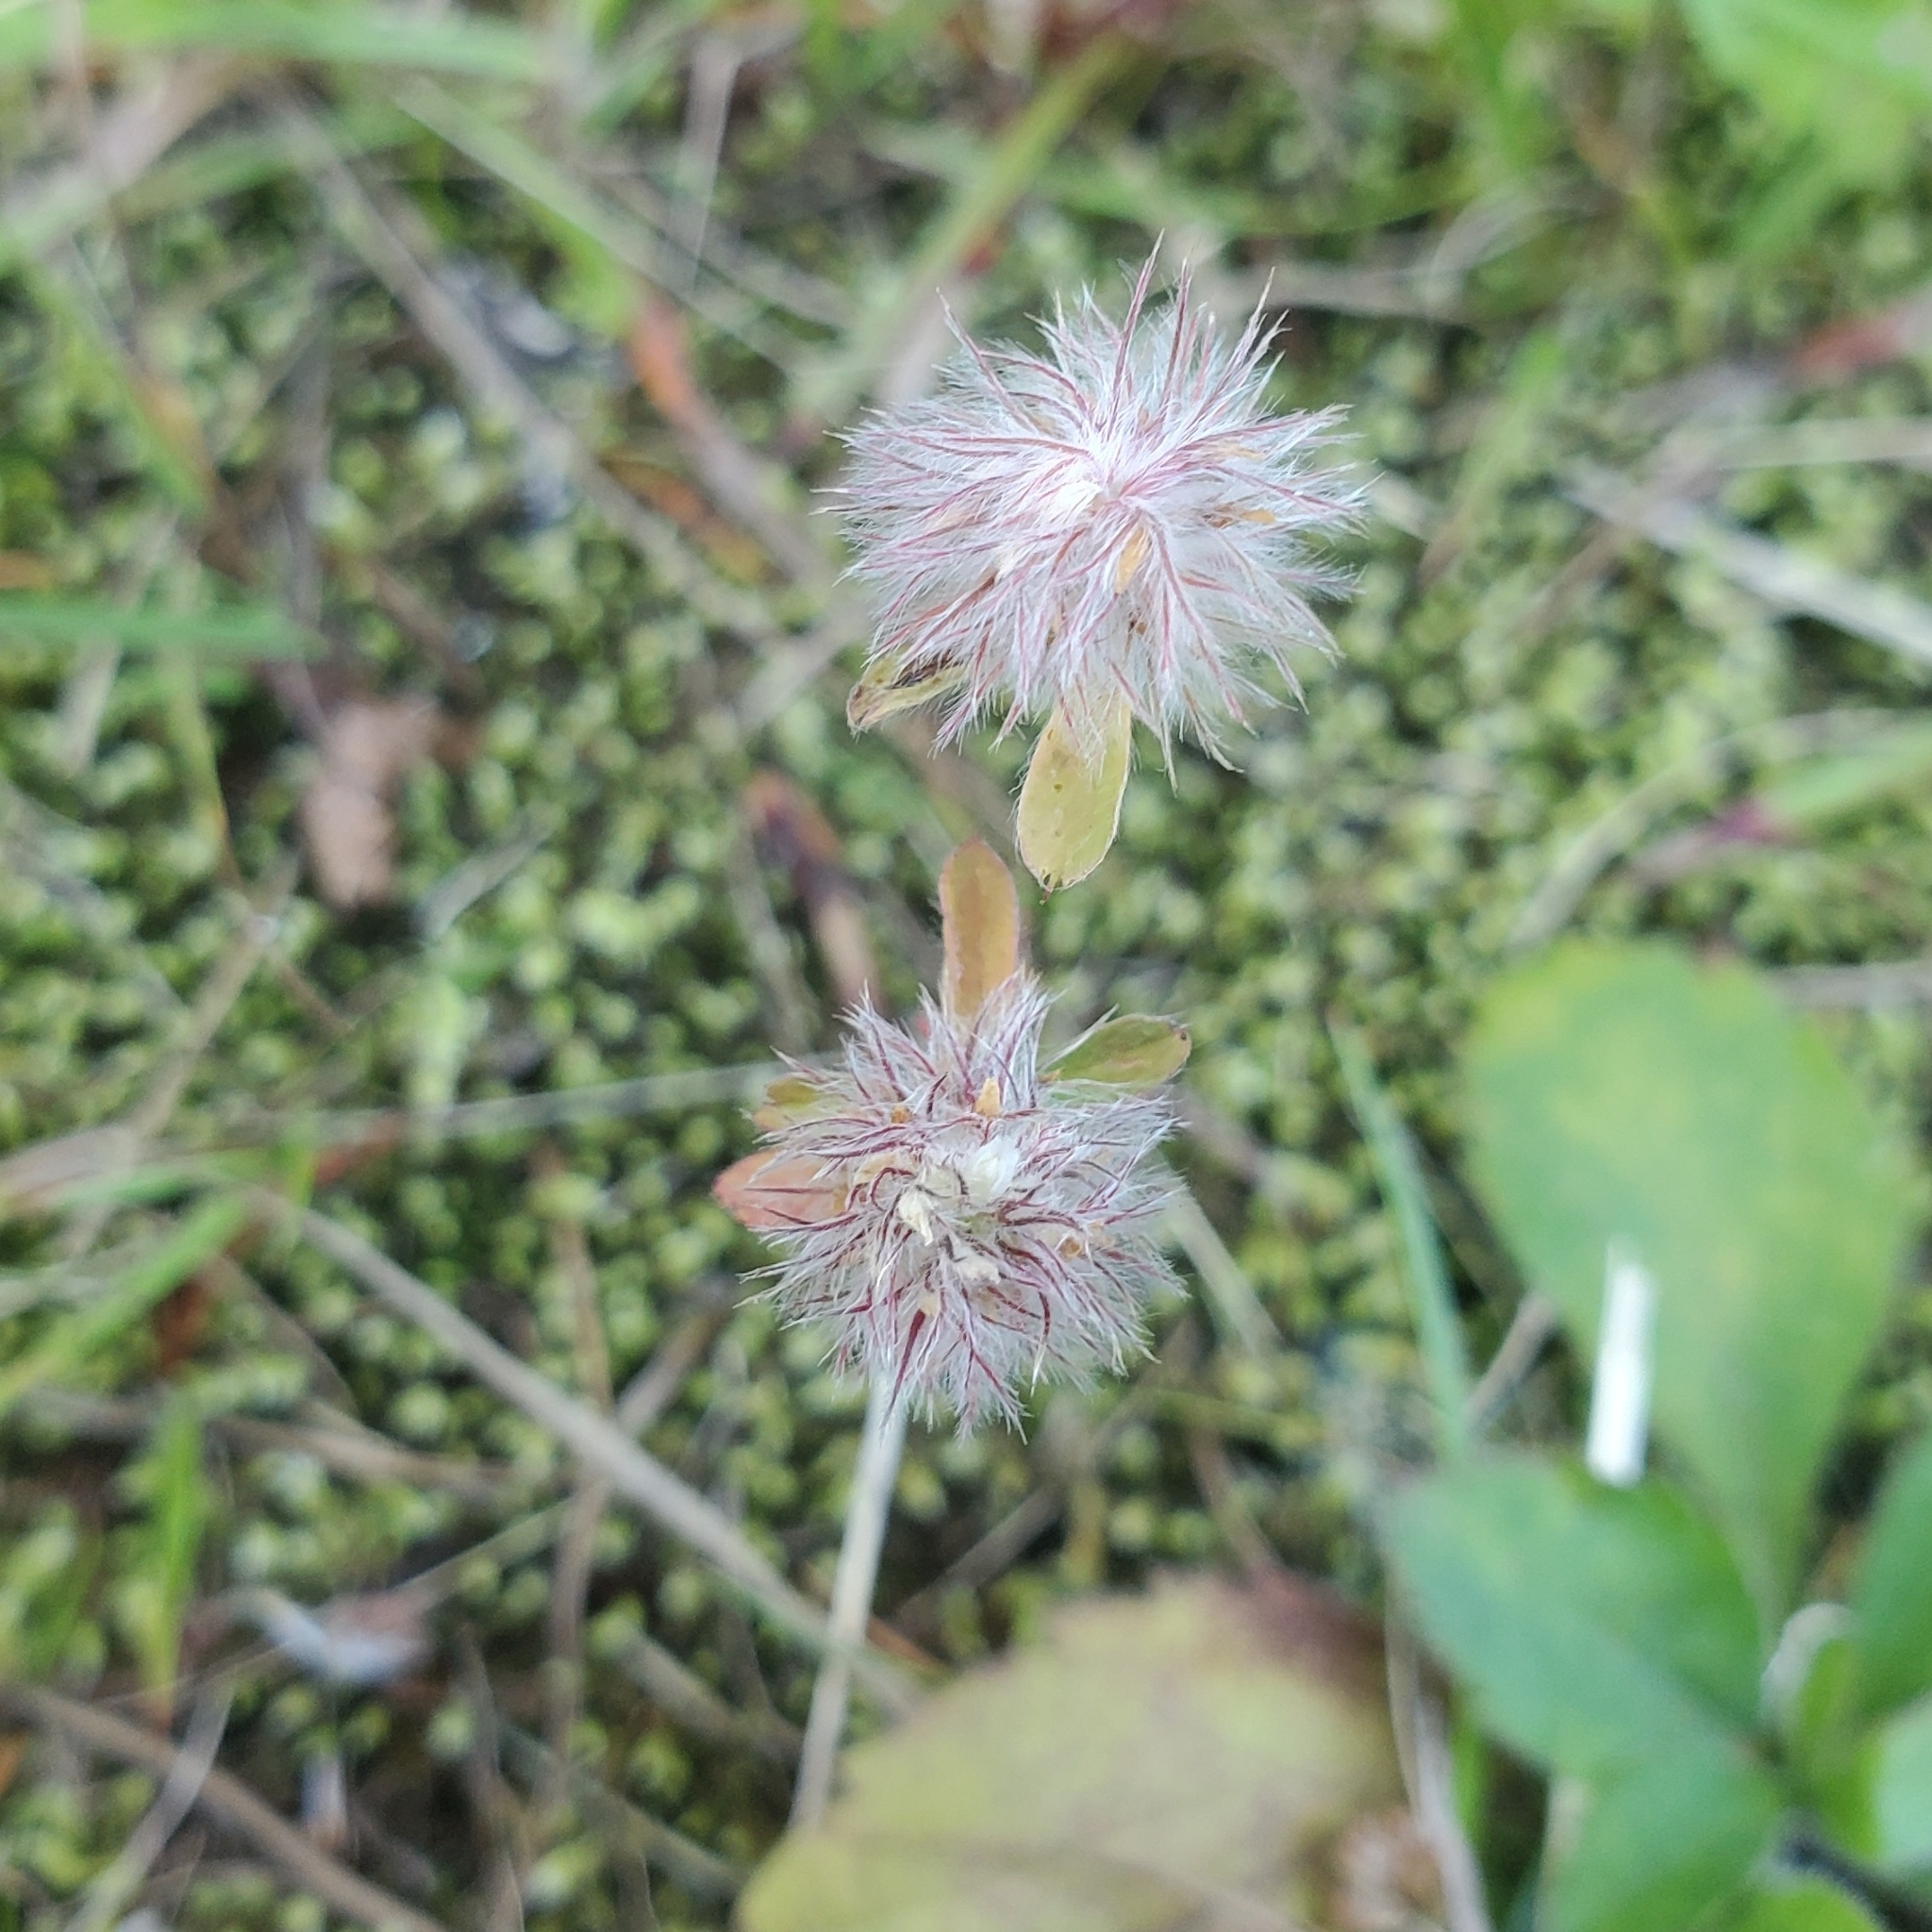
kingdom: Plantae
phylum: Tracheophyta
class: Magnoliopsida
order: Fabales
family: Fabaceae
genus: Trifolium
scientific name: Trifolium arvense
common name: Hare's-foot clover
